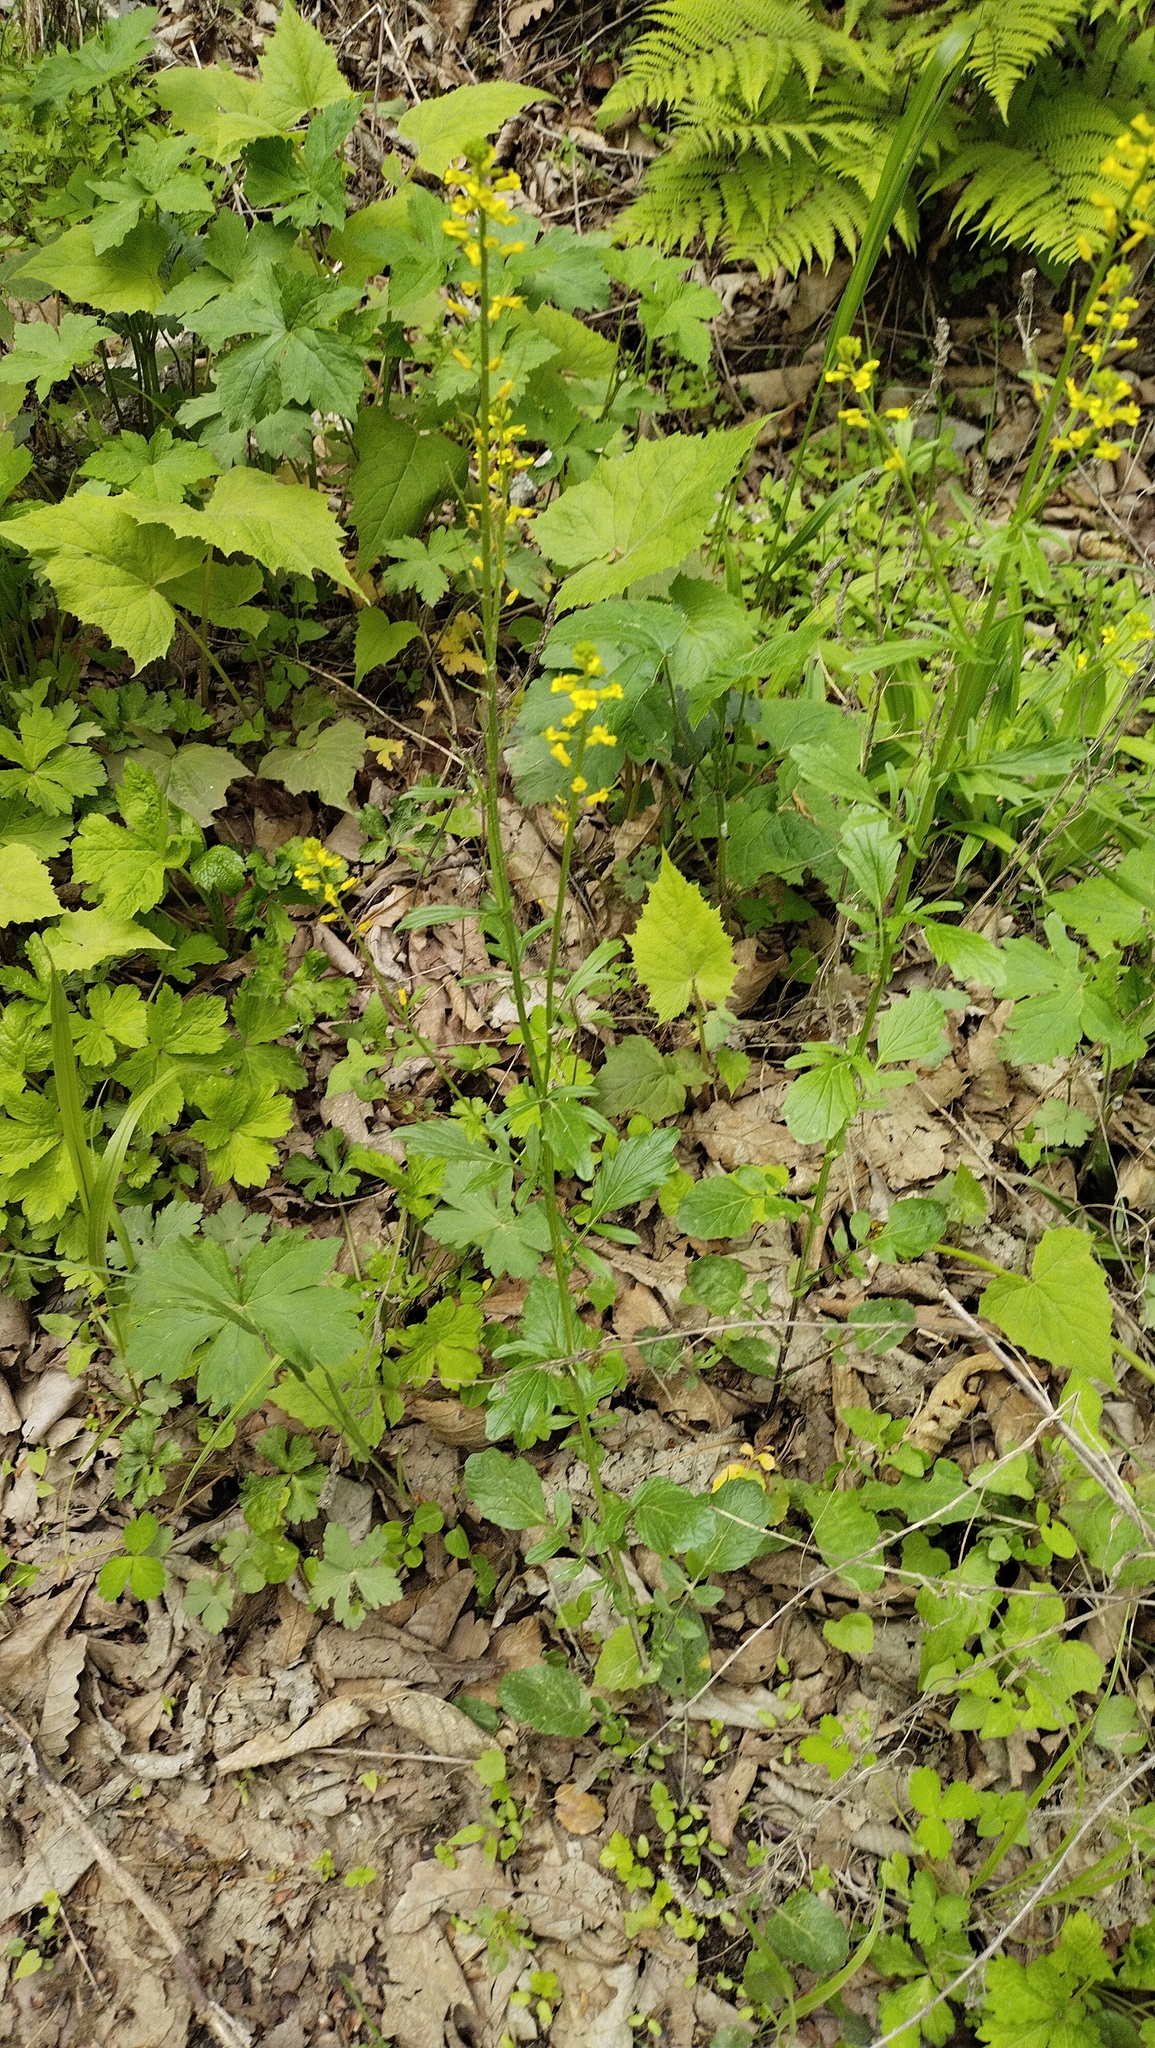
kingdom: Plantae
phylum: Tracheophyta
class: Magnoliopsida
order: Brassicales
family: Brassicaceae
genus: Barbarea
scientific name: Barbarea orthoceras
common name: American wintercress
